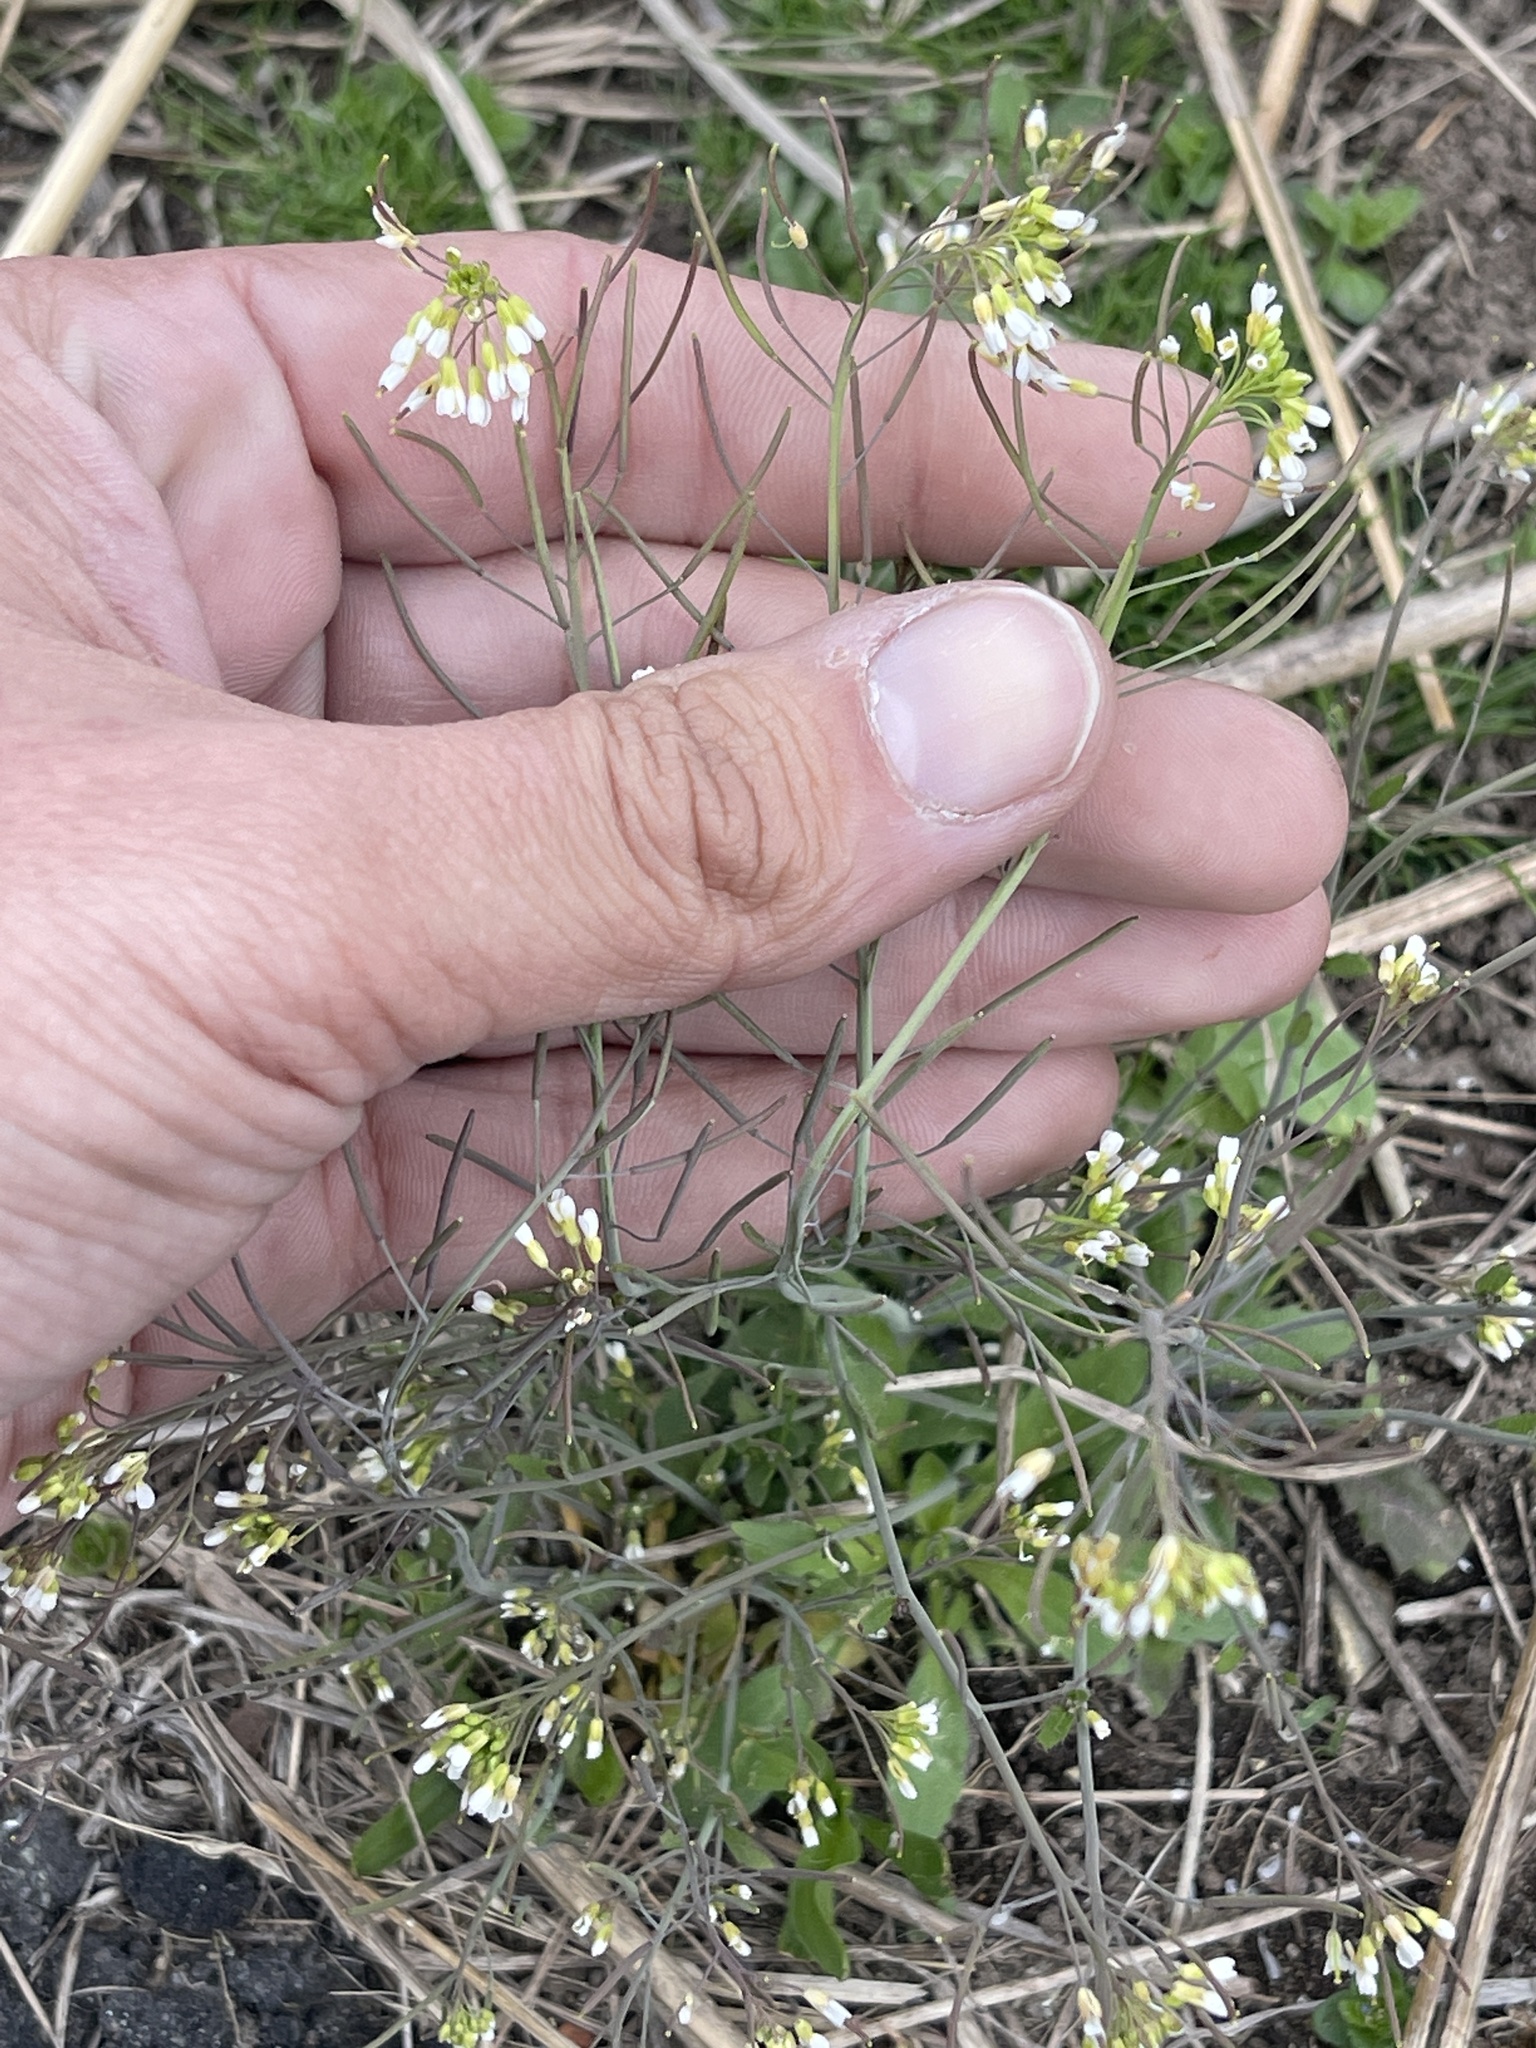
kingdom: Plantae
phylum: Tracheophyta
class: Magnoliopsida
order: Brassicales
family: Brassicaceae
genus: Arabidopsis
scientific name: Arabidopsis thaliana
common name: Thale cress
